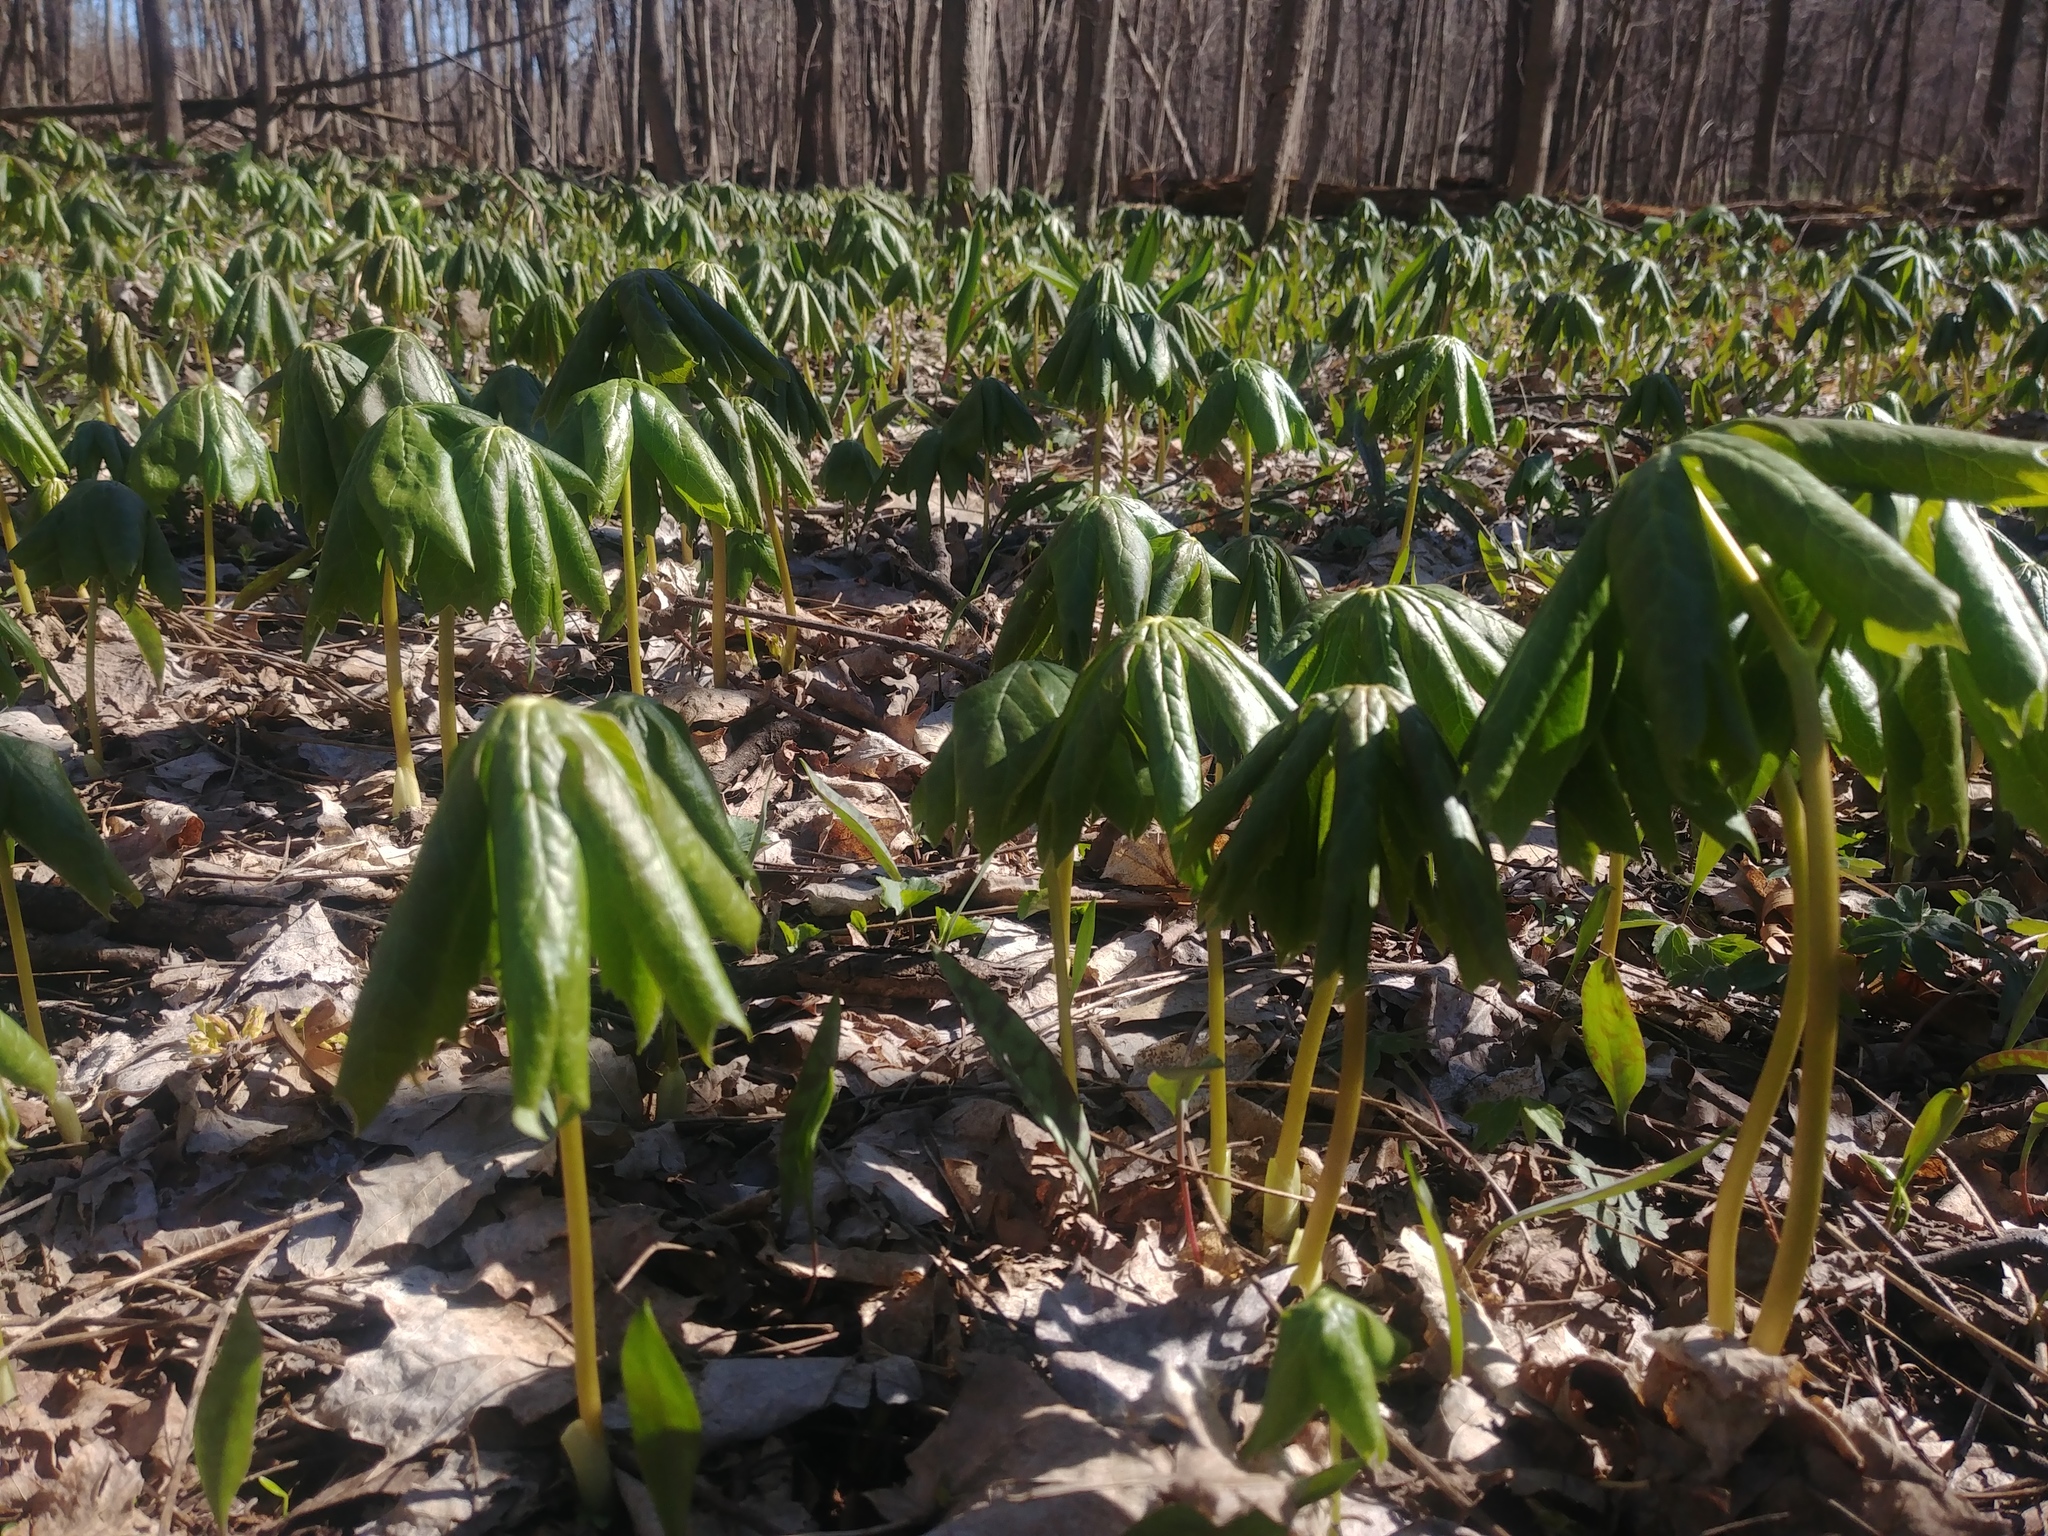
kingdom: Plantae
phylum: Tracheophyta
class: Magnoliopsida
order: Ranunculales
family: Berberidaceae
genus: Podophyllum
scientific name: Podophyllum peltatum
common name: Wild mandrake
